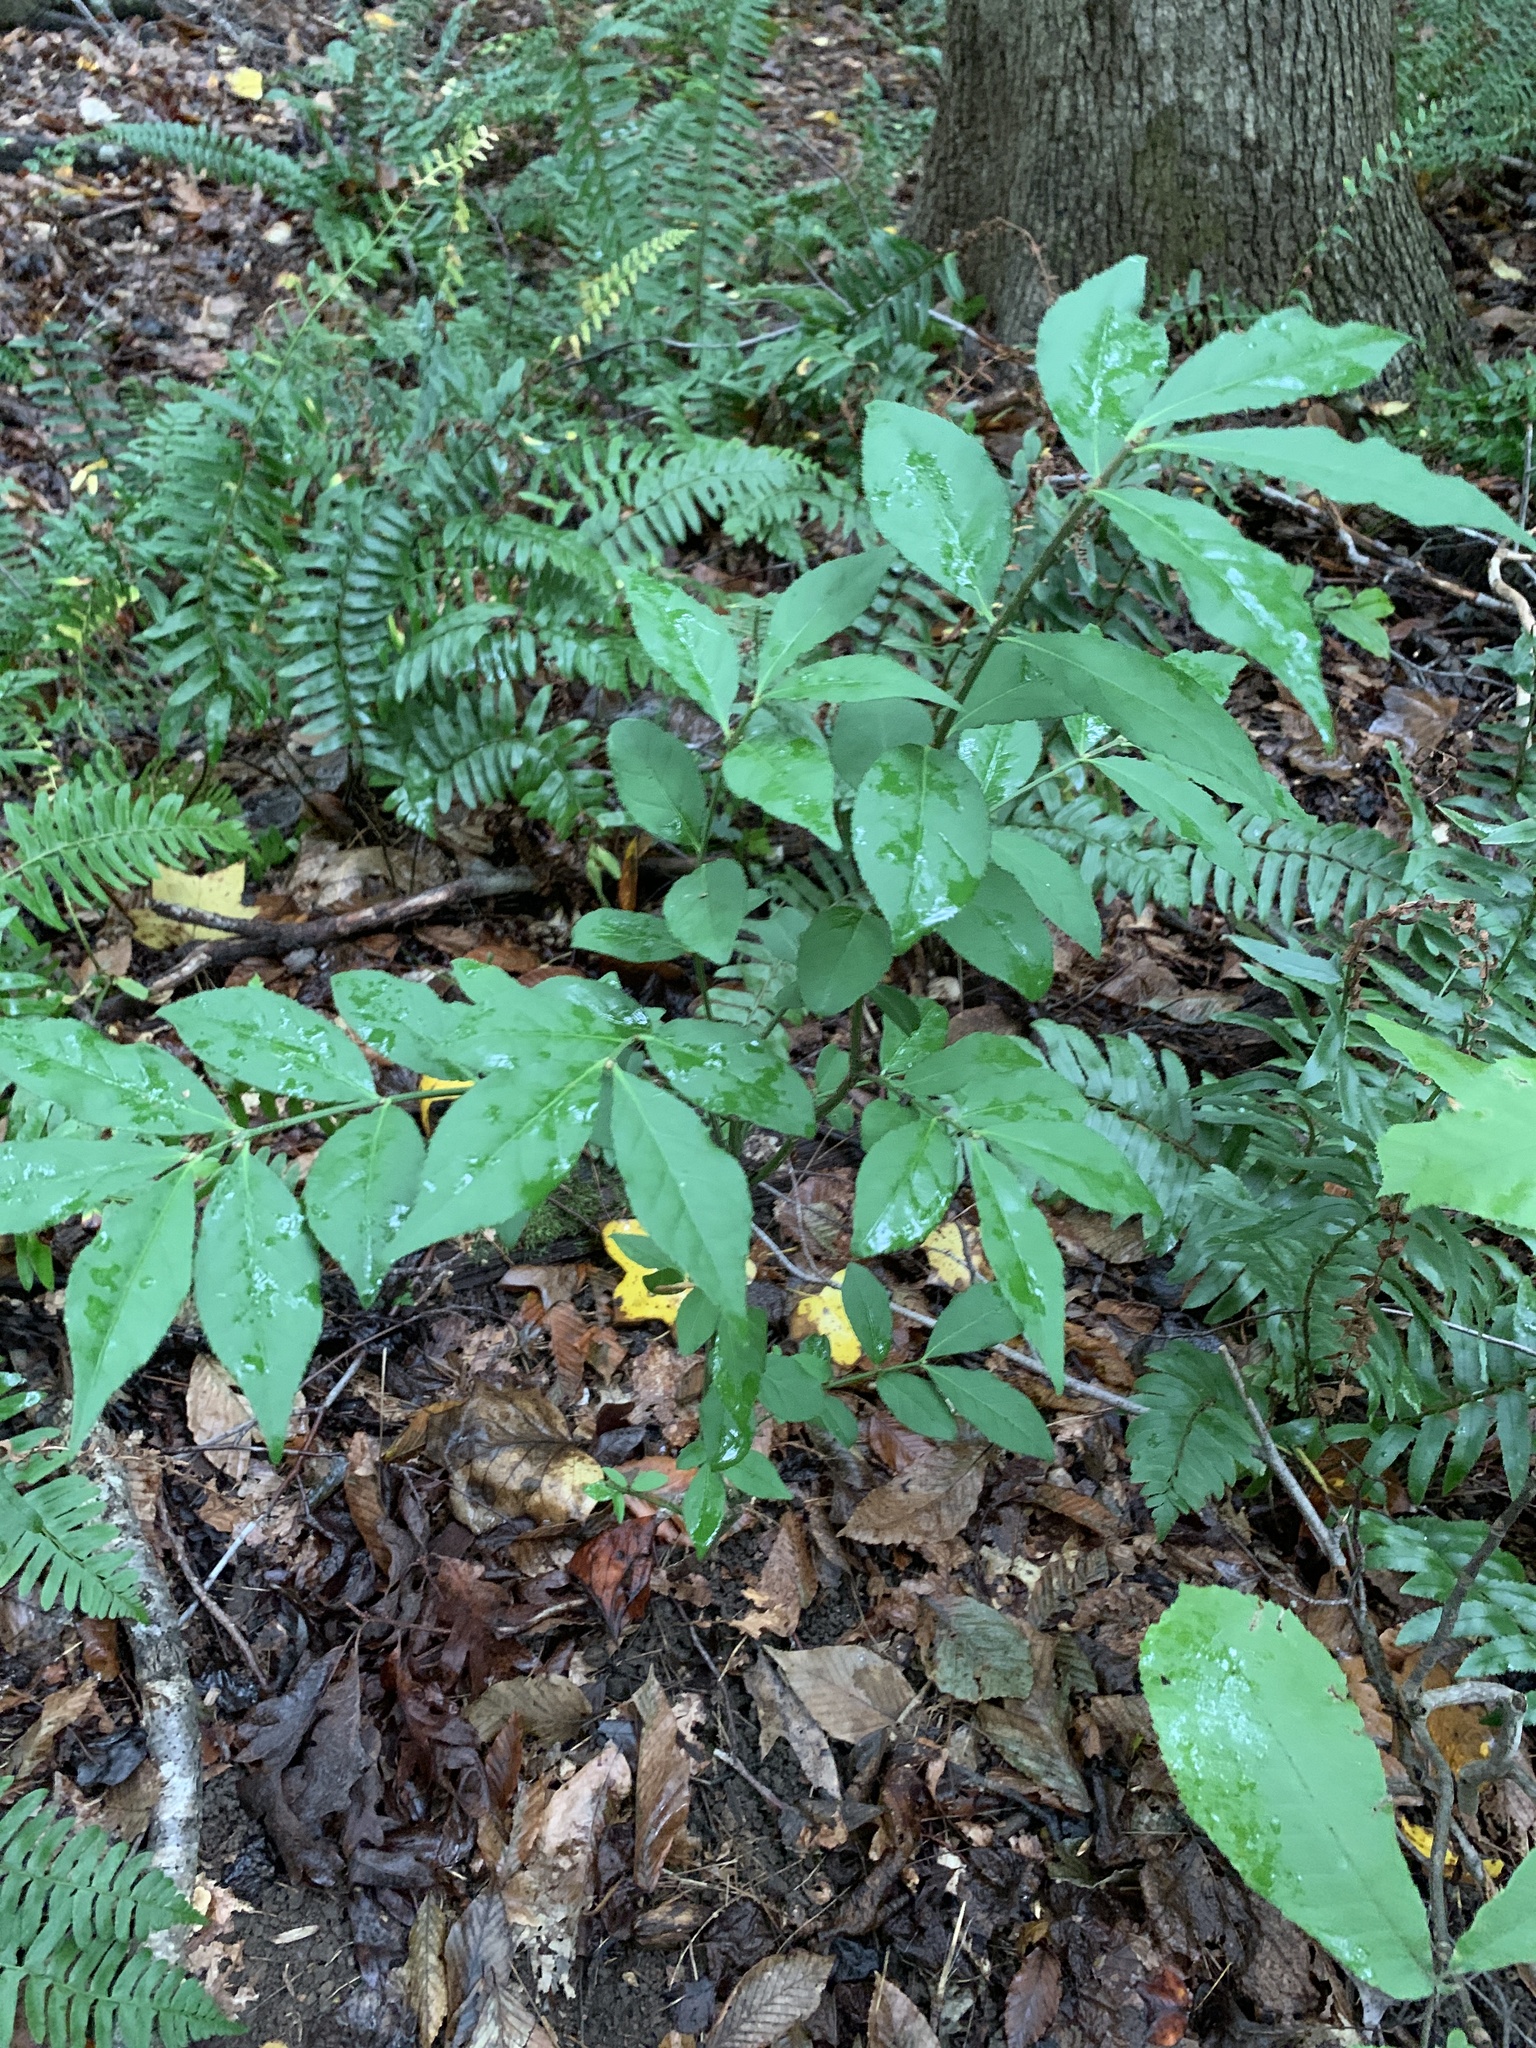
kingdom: Plantae
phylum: Tracheophyta
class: Magnoliopsida
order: Celastrales
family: Celastraceae
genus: Euonymus
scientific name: Euonymus alatus
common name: Winged euonymus
